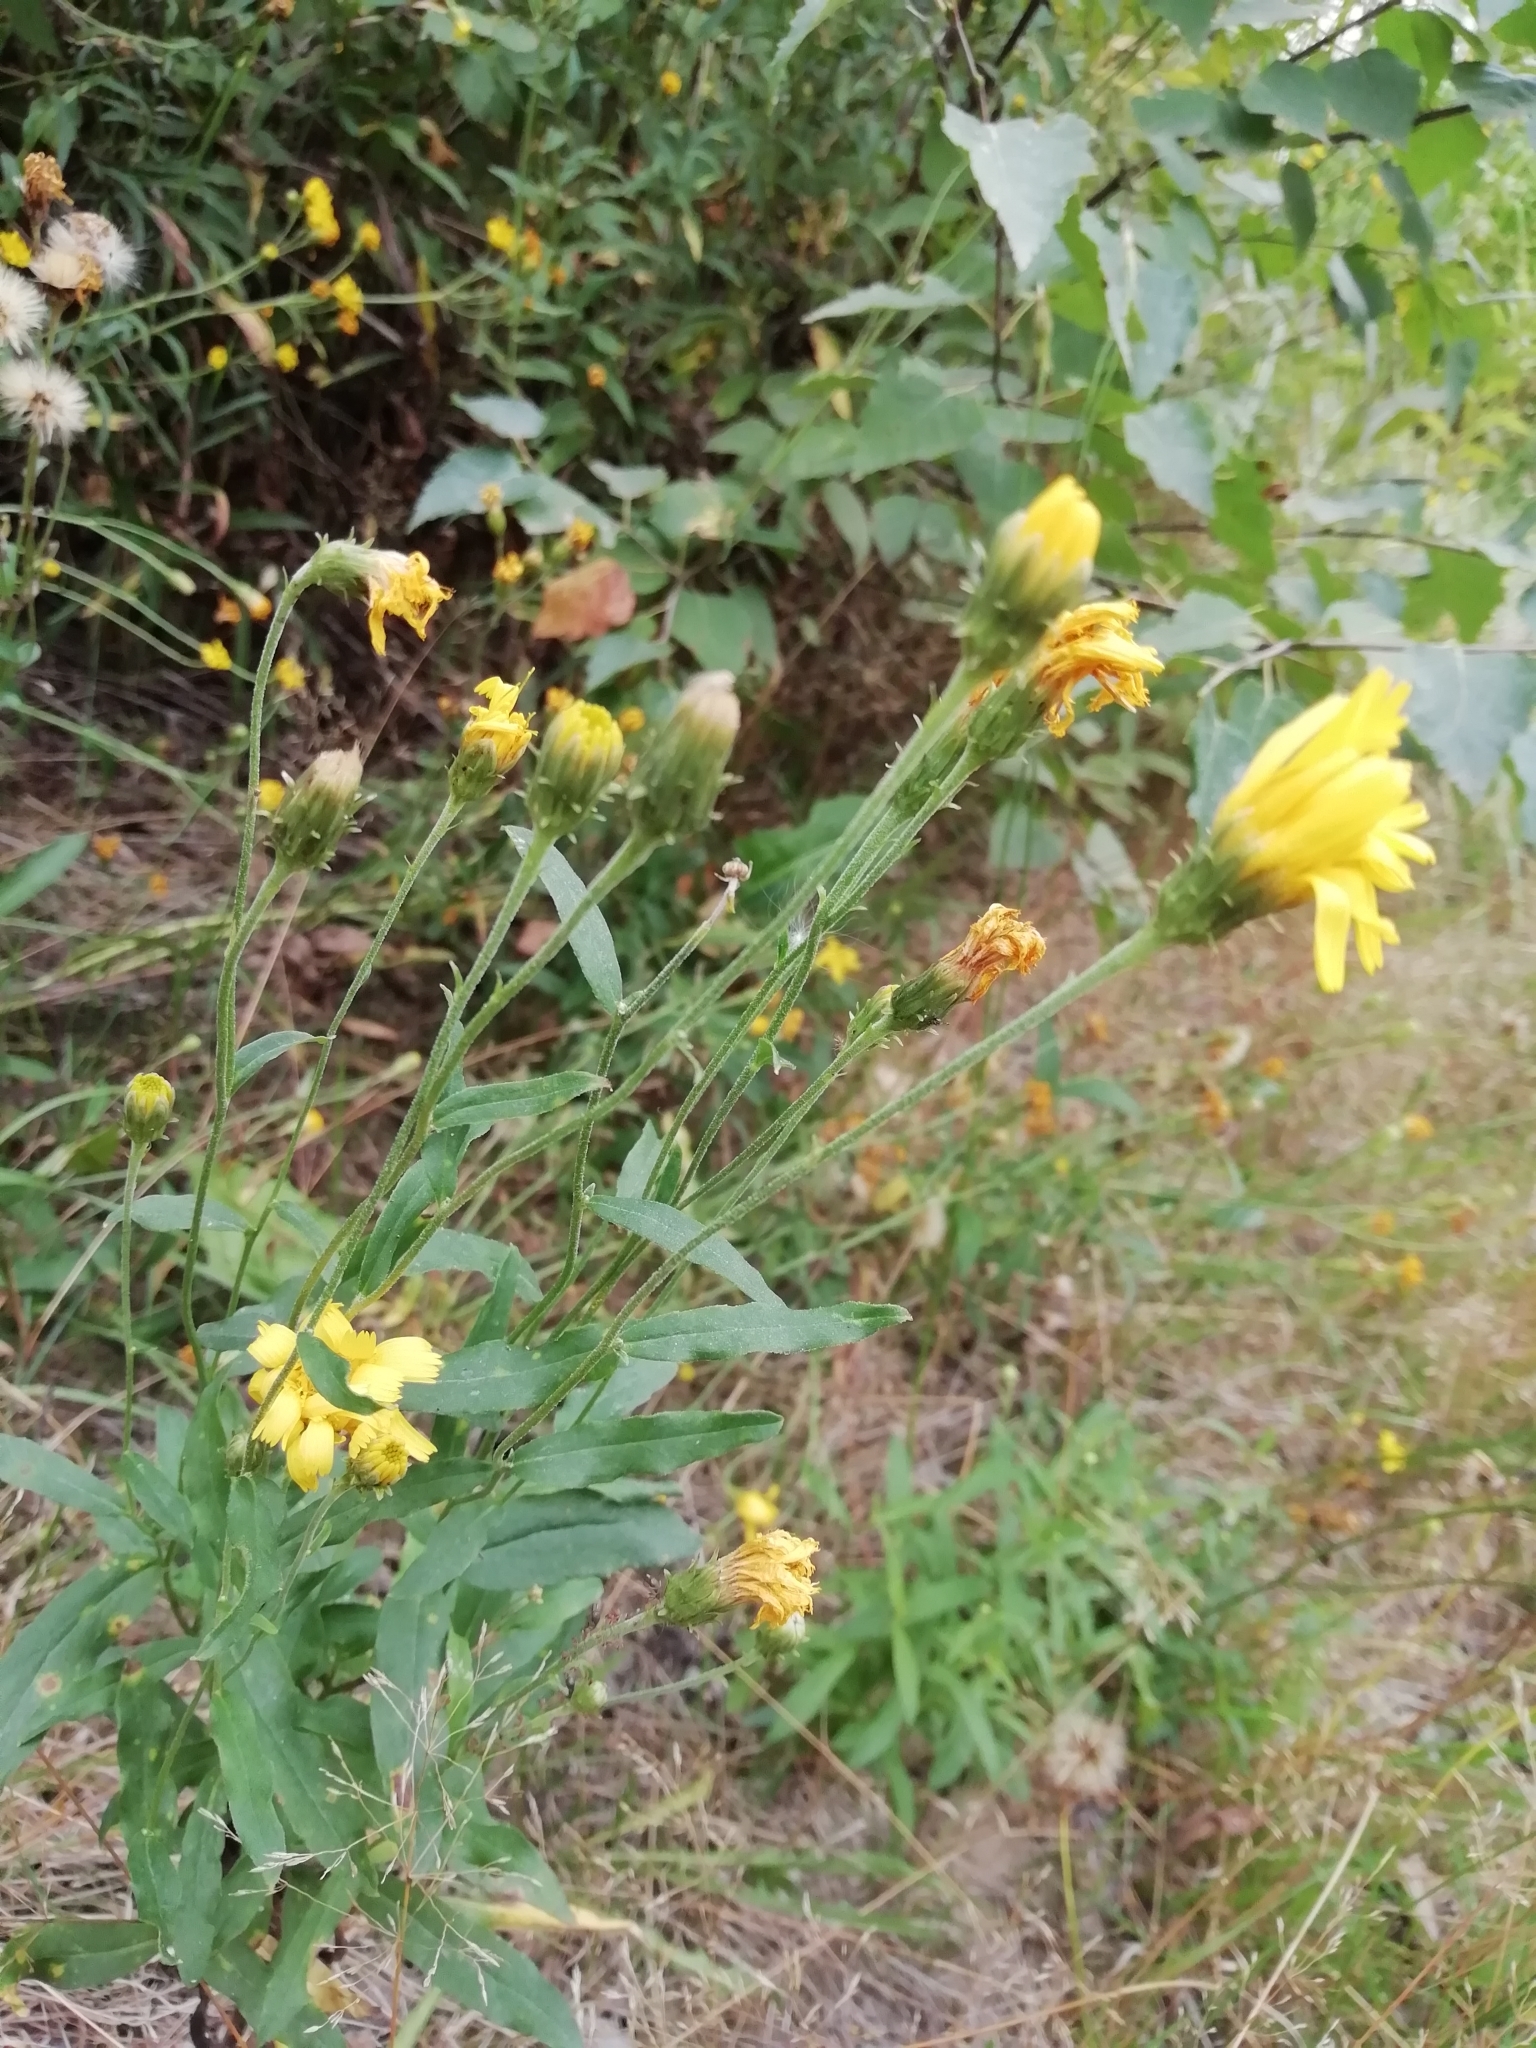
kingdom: Plantae
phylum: Tracheophyta
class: Magnoliopsida
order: Asterales
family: Asteraceae
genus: Hieracium
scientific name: Hieracium umbellatum
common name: Northern hawkweed
